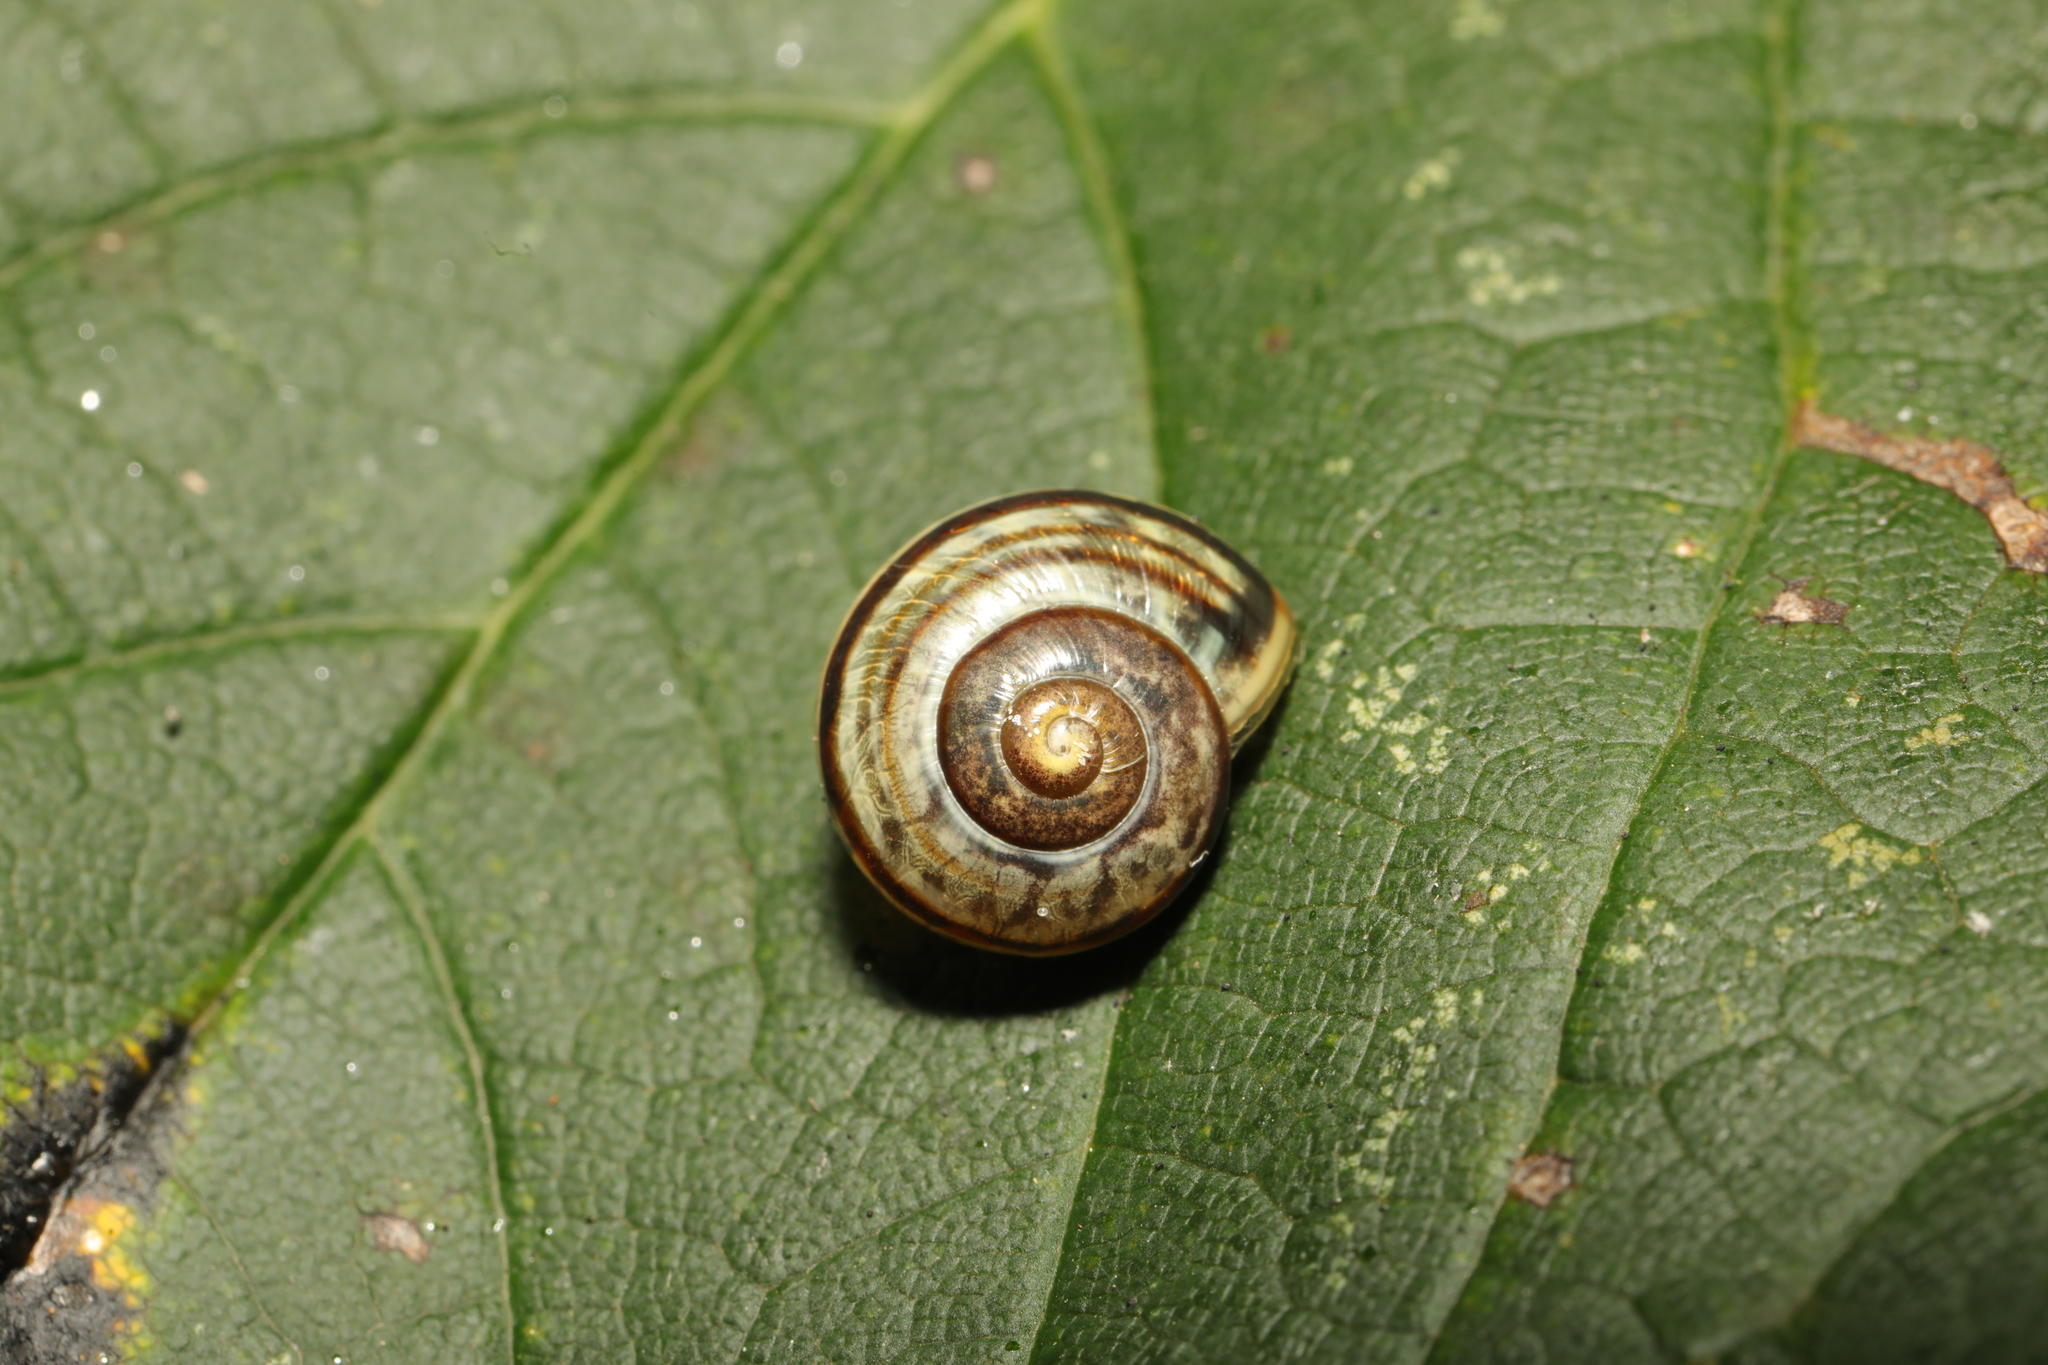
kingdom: Animalia
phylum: Mollusca
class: Gastropoda
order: Stylommatophora
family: Helicidae
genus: Cepaea
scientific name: Cepaea
